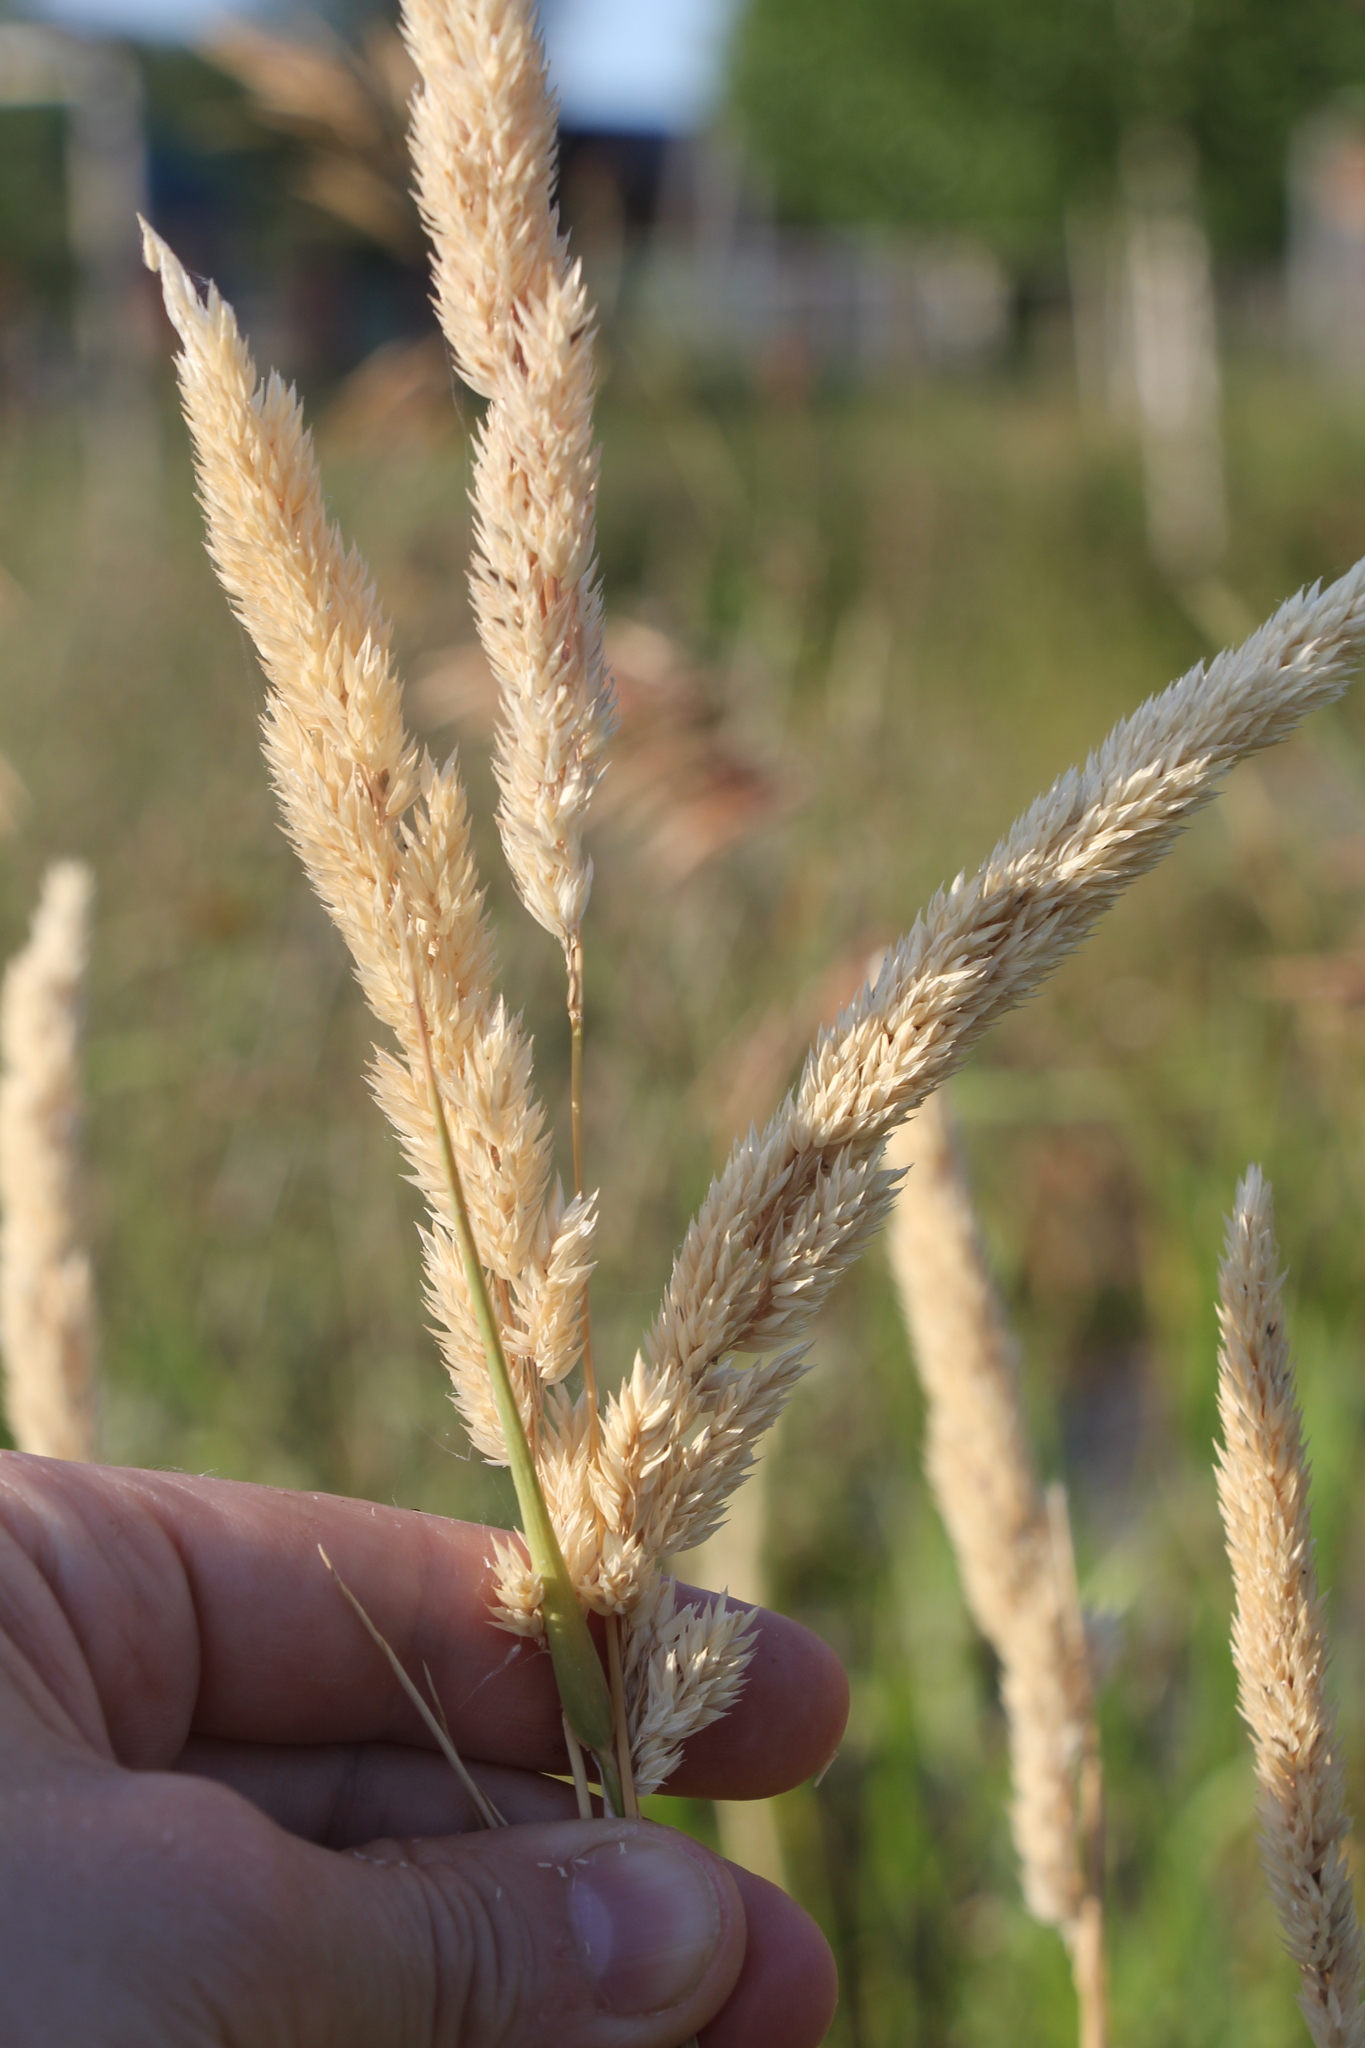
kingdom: Plantae
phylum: Tracheophyta
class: Liliopsida
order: Poales
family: Poaceae
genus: Phalaris
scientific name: Phalaris arundinacea
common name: Reed canary-grass
